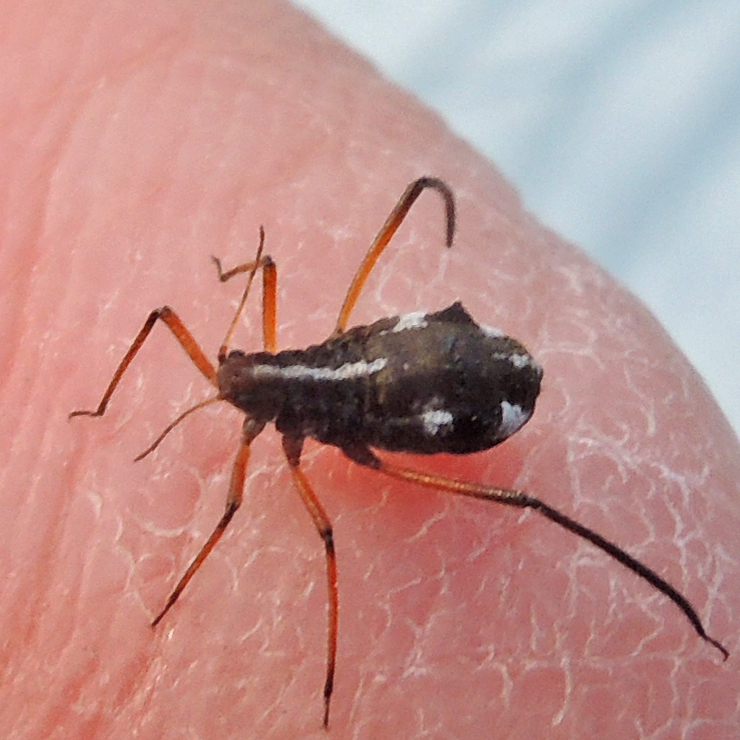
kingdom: Animalia
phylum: Arthropoda
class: Insecta
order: Hemiptera
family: Aphididae
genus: Cinara
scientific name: Cinara strobi
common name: White pine aphid
